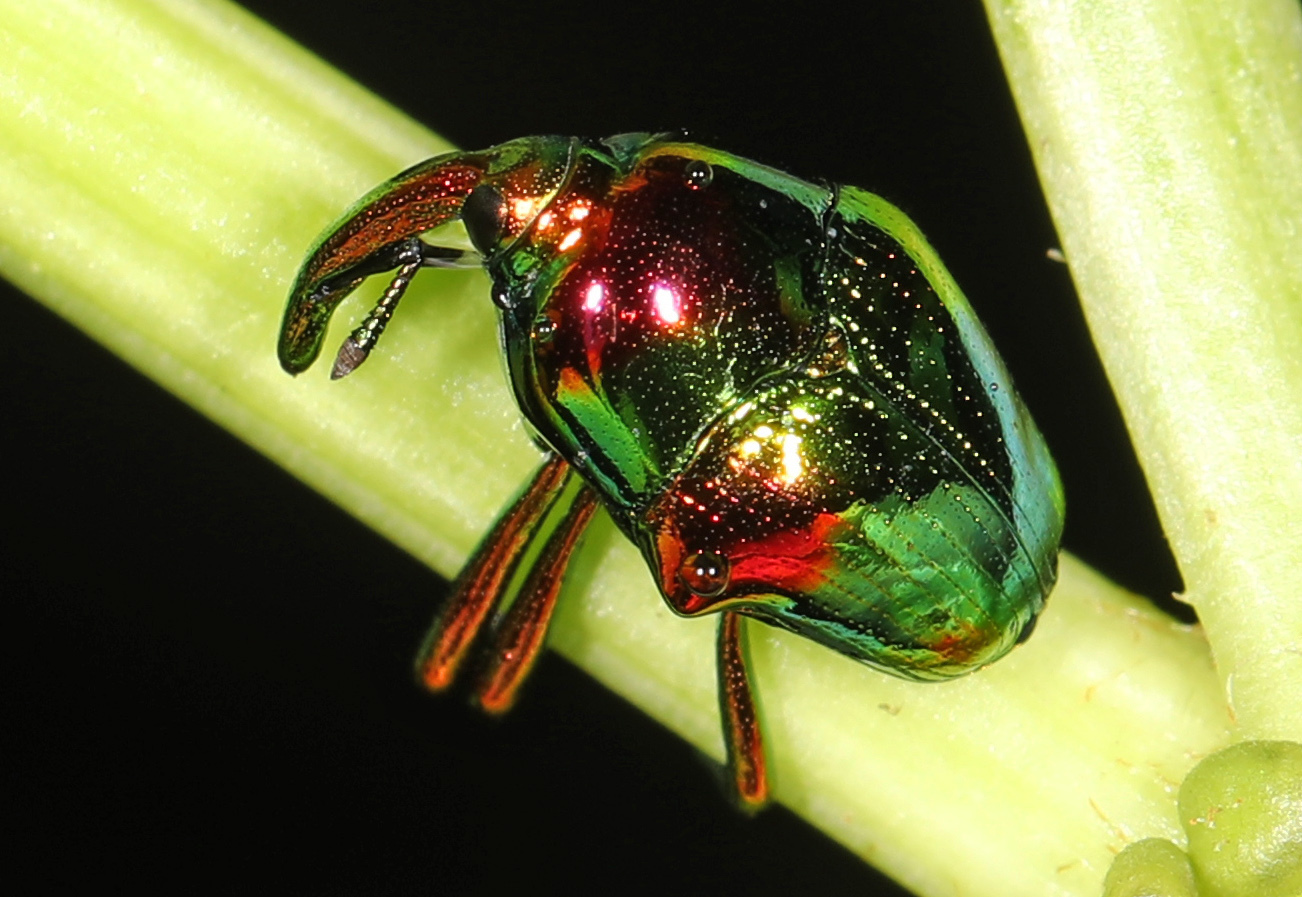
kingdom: Animalia
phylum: Arthropoda
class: Insecta
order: Coleoptera
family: Eurhynchidae
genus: Eurhinus
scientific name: Eurhinus magnificus
